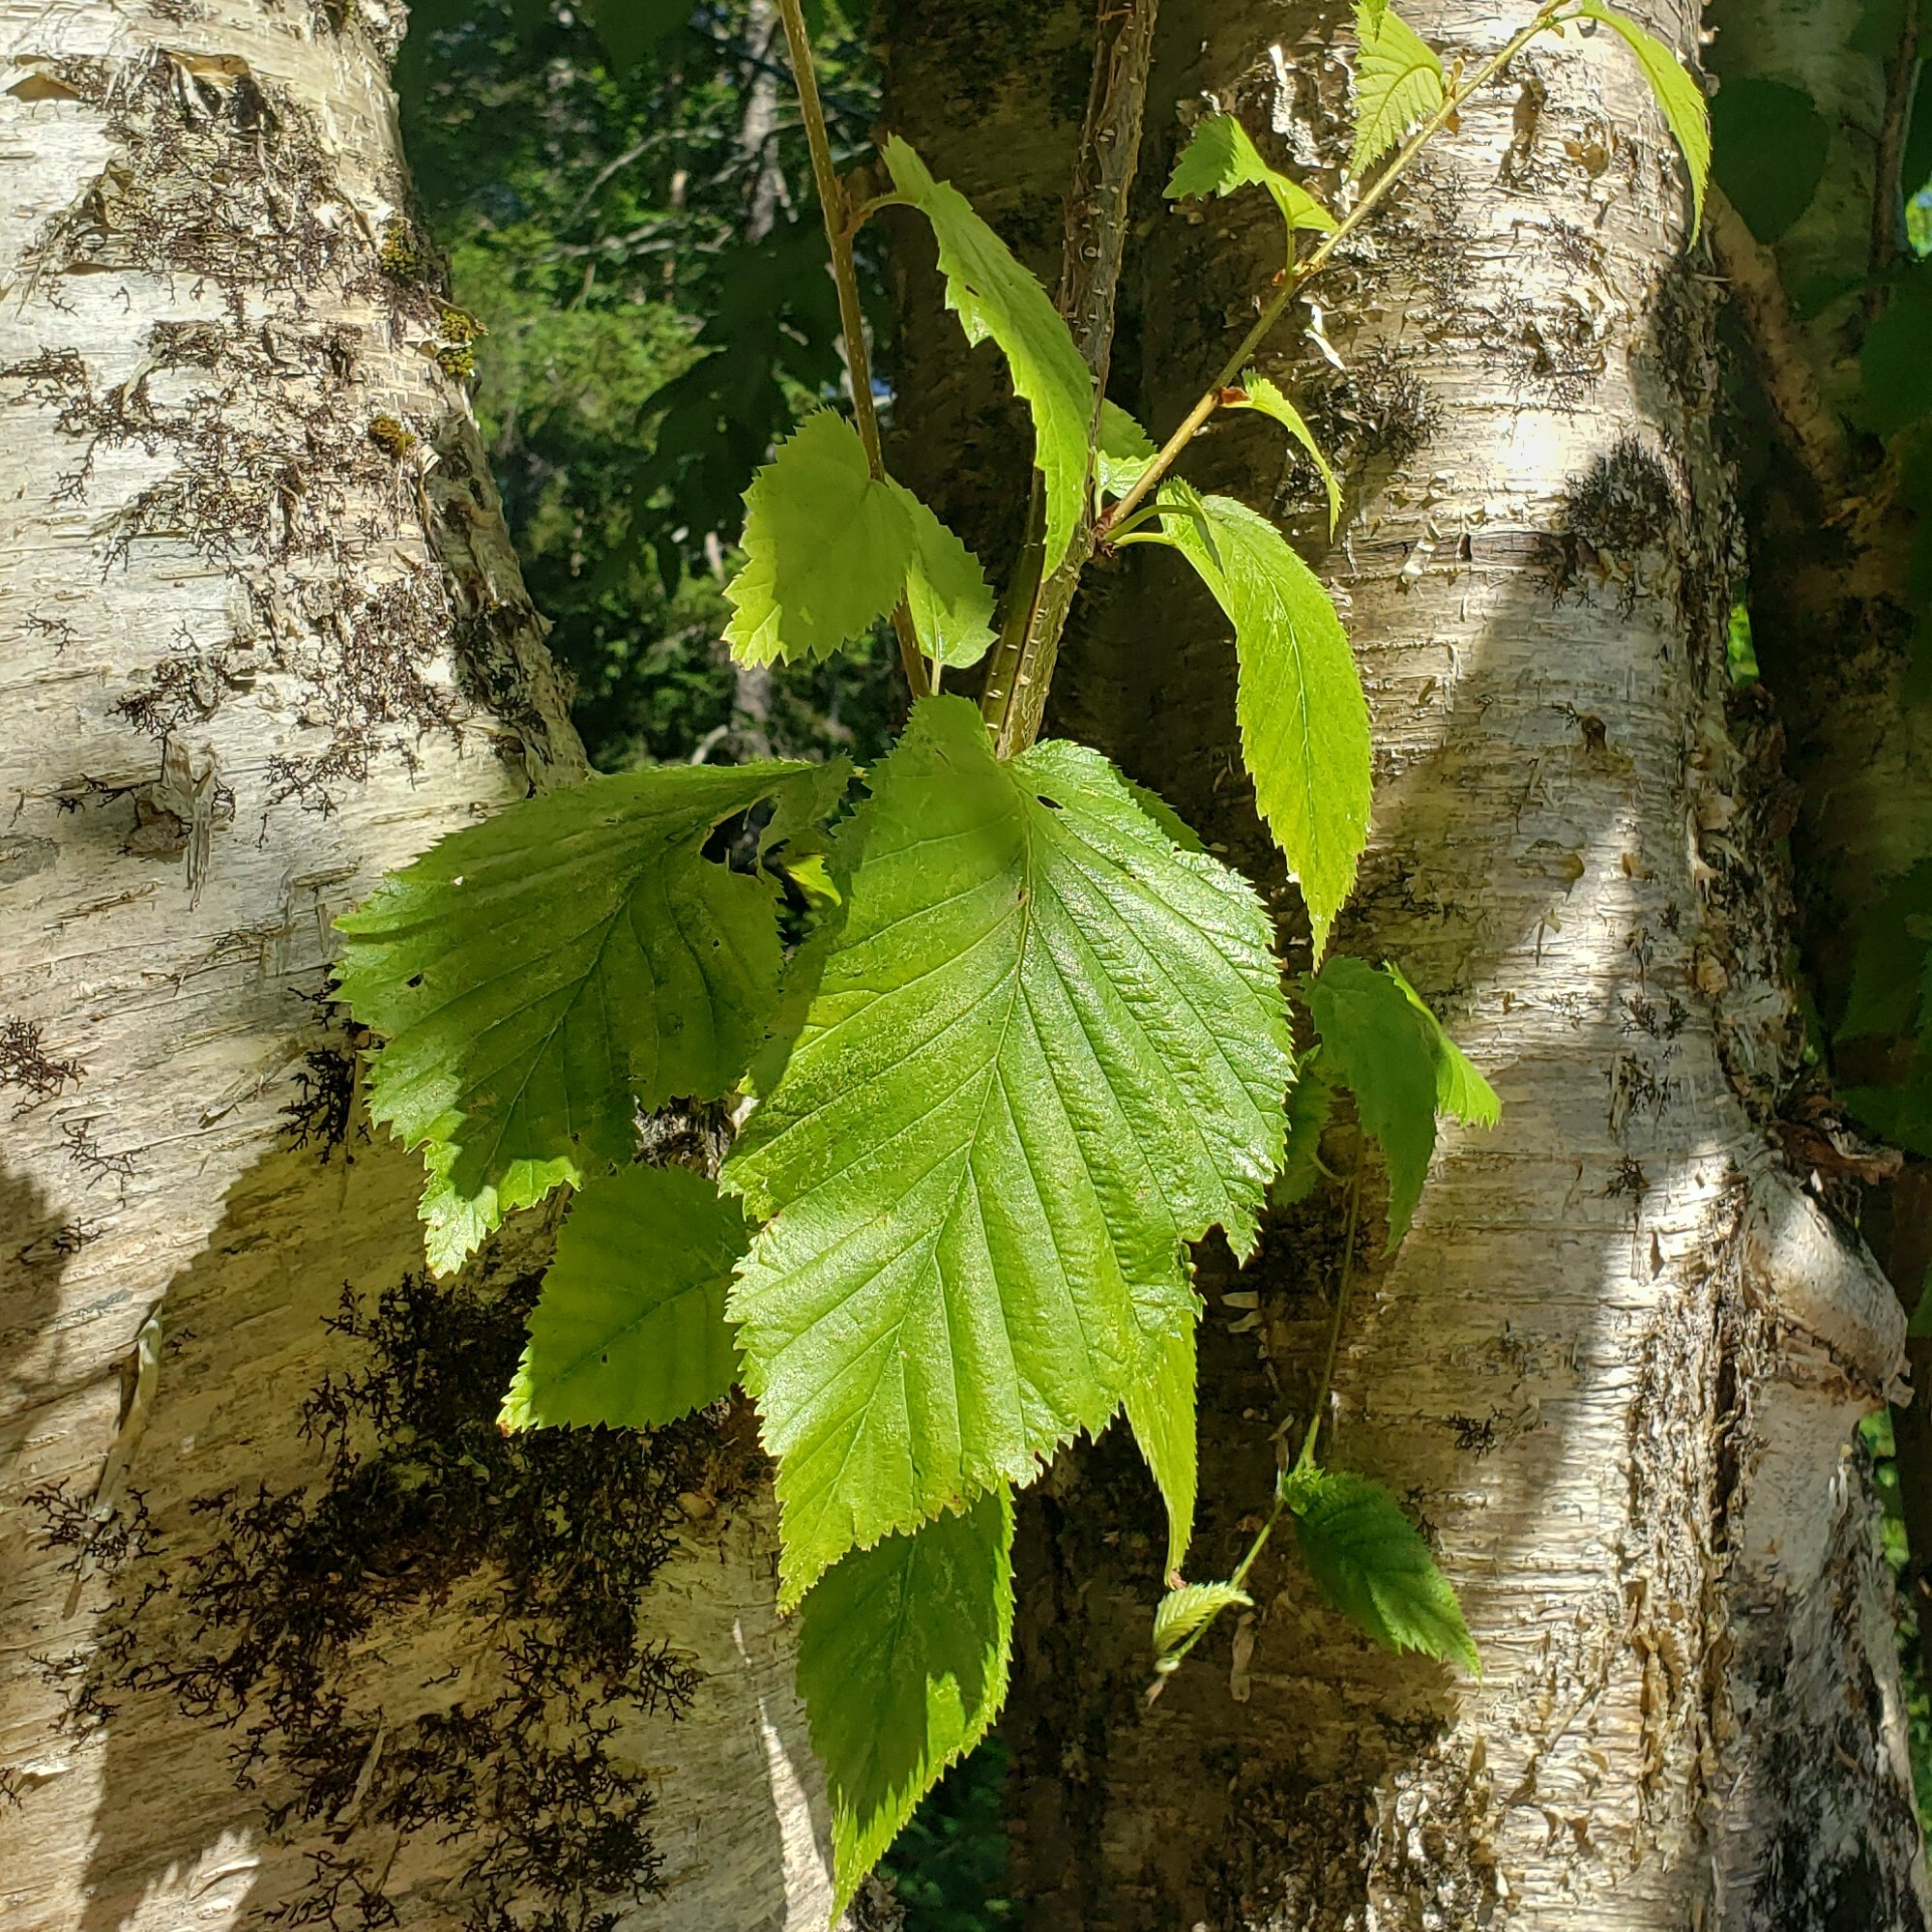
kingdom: Plantae
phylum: Tracheophyta
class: Magnoliopsida
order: Fagales
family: Betulaceae
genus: Betula
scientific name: Betula alleghaniensis
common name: Yellow birch
